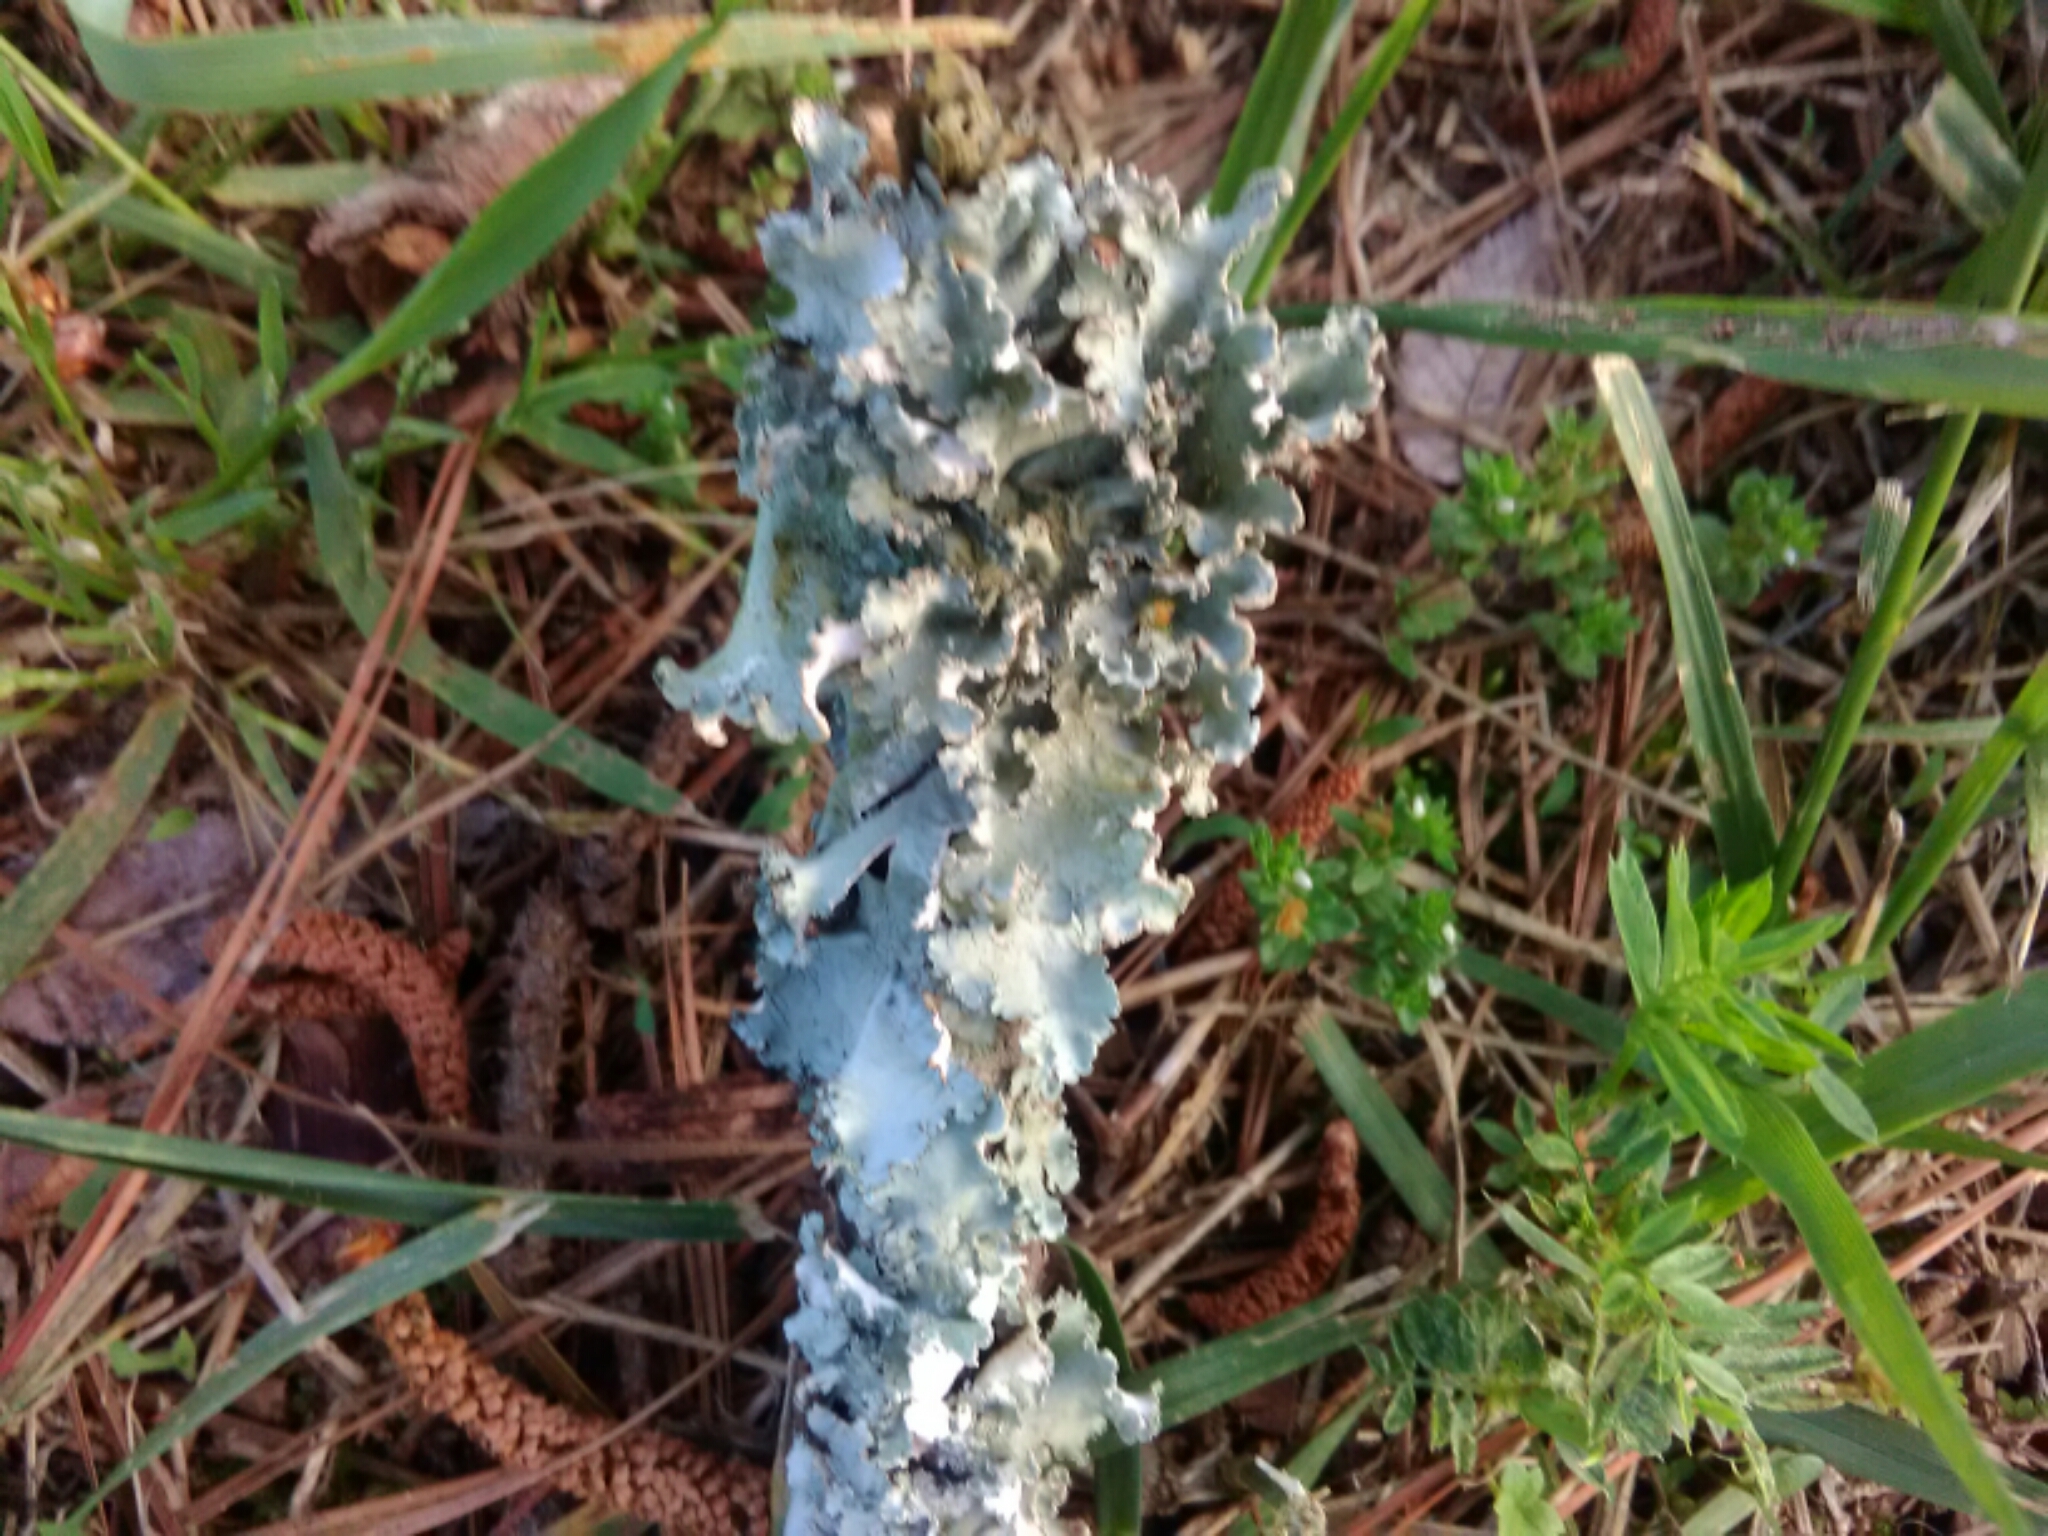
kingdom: Fungi
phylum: Ascomycota
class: Lecanoromycetes
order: Lecanorales
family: Parmeliaceae
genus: Parmotrema
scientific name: Parmotrema hypotropum
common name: Powdered ruffle lichen
